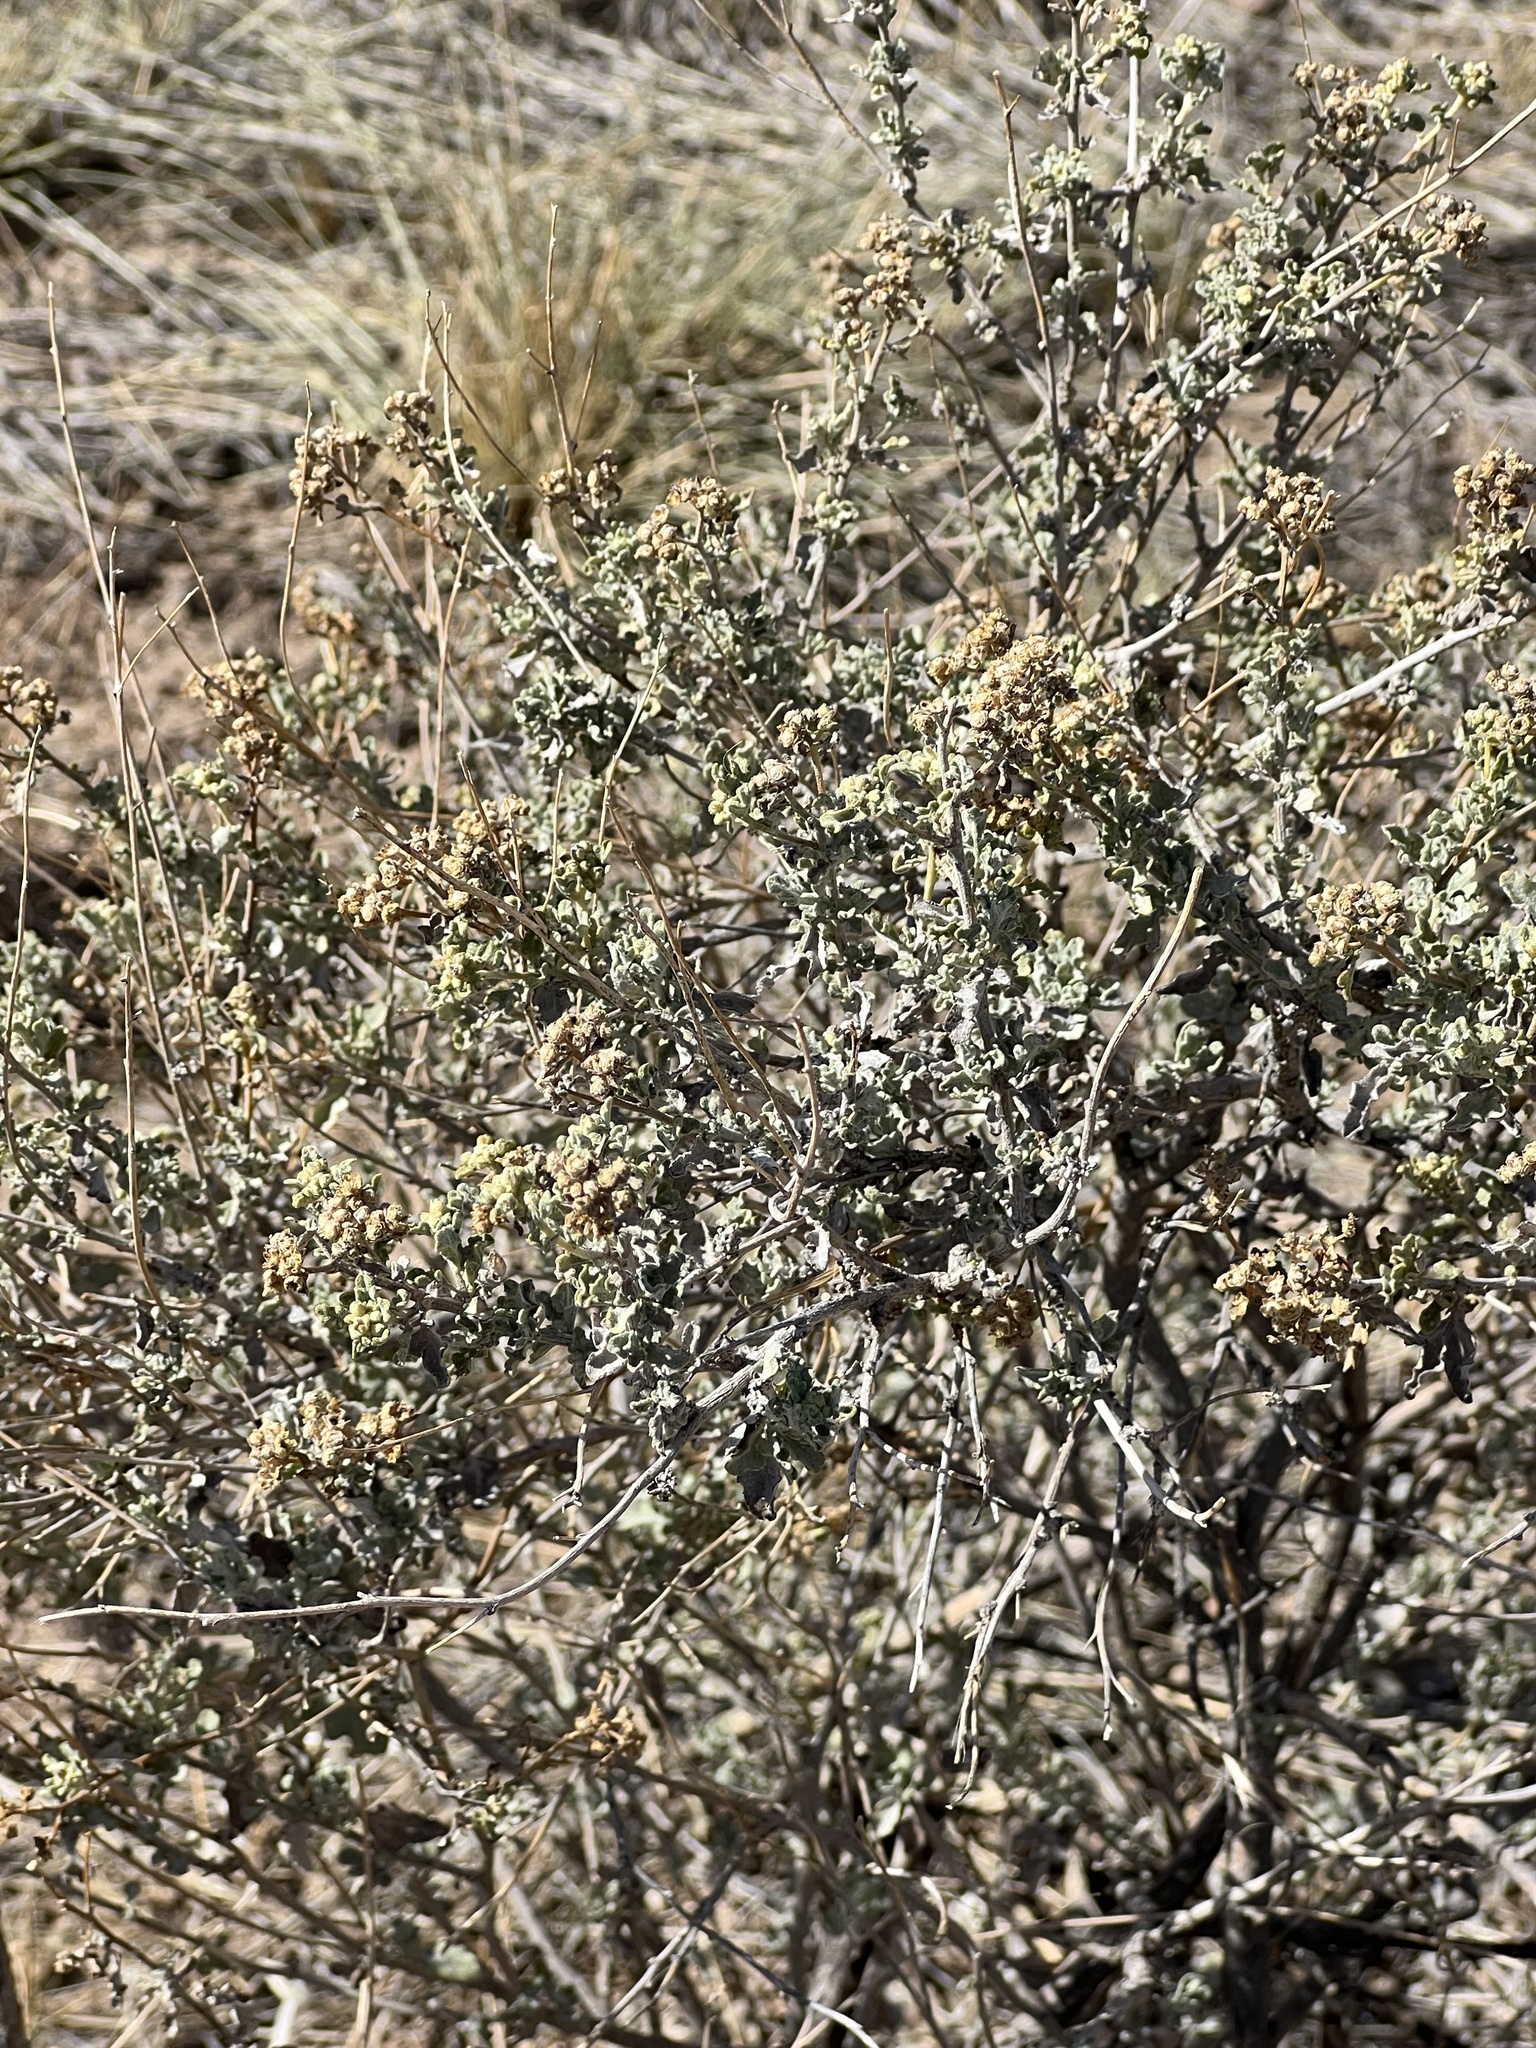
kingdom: Plantae
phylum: Tracheophyta
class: Magnoliopsida
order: Asterales
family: Asteraceae
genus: Parthenium
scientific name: Parthenium incanum
